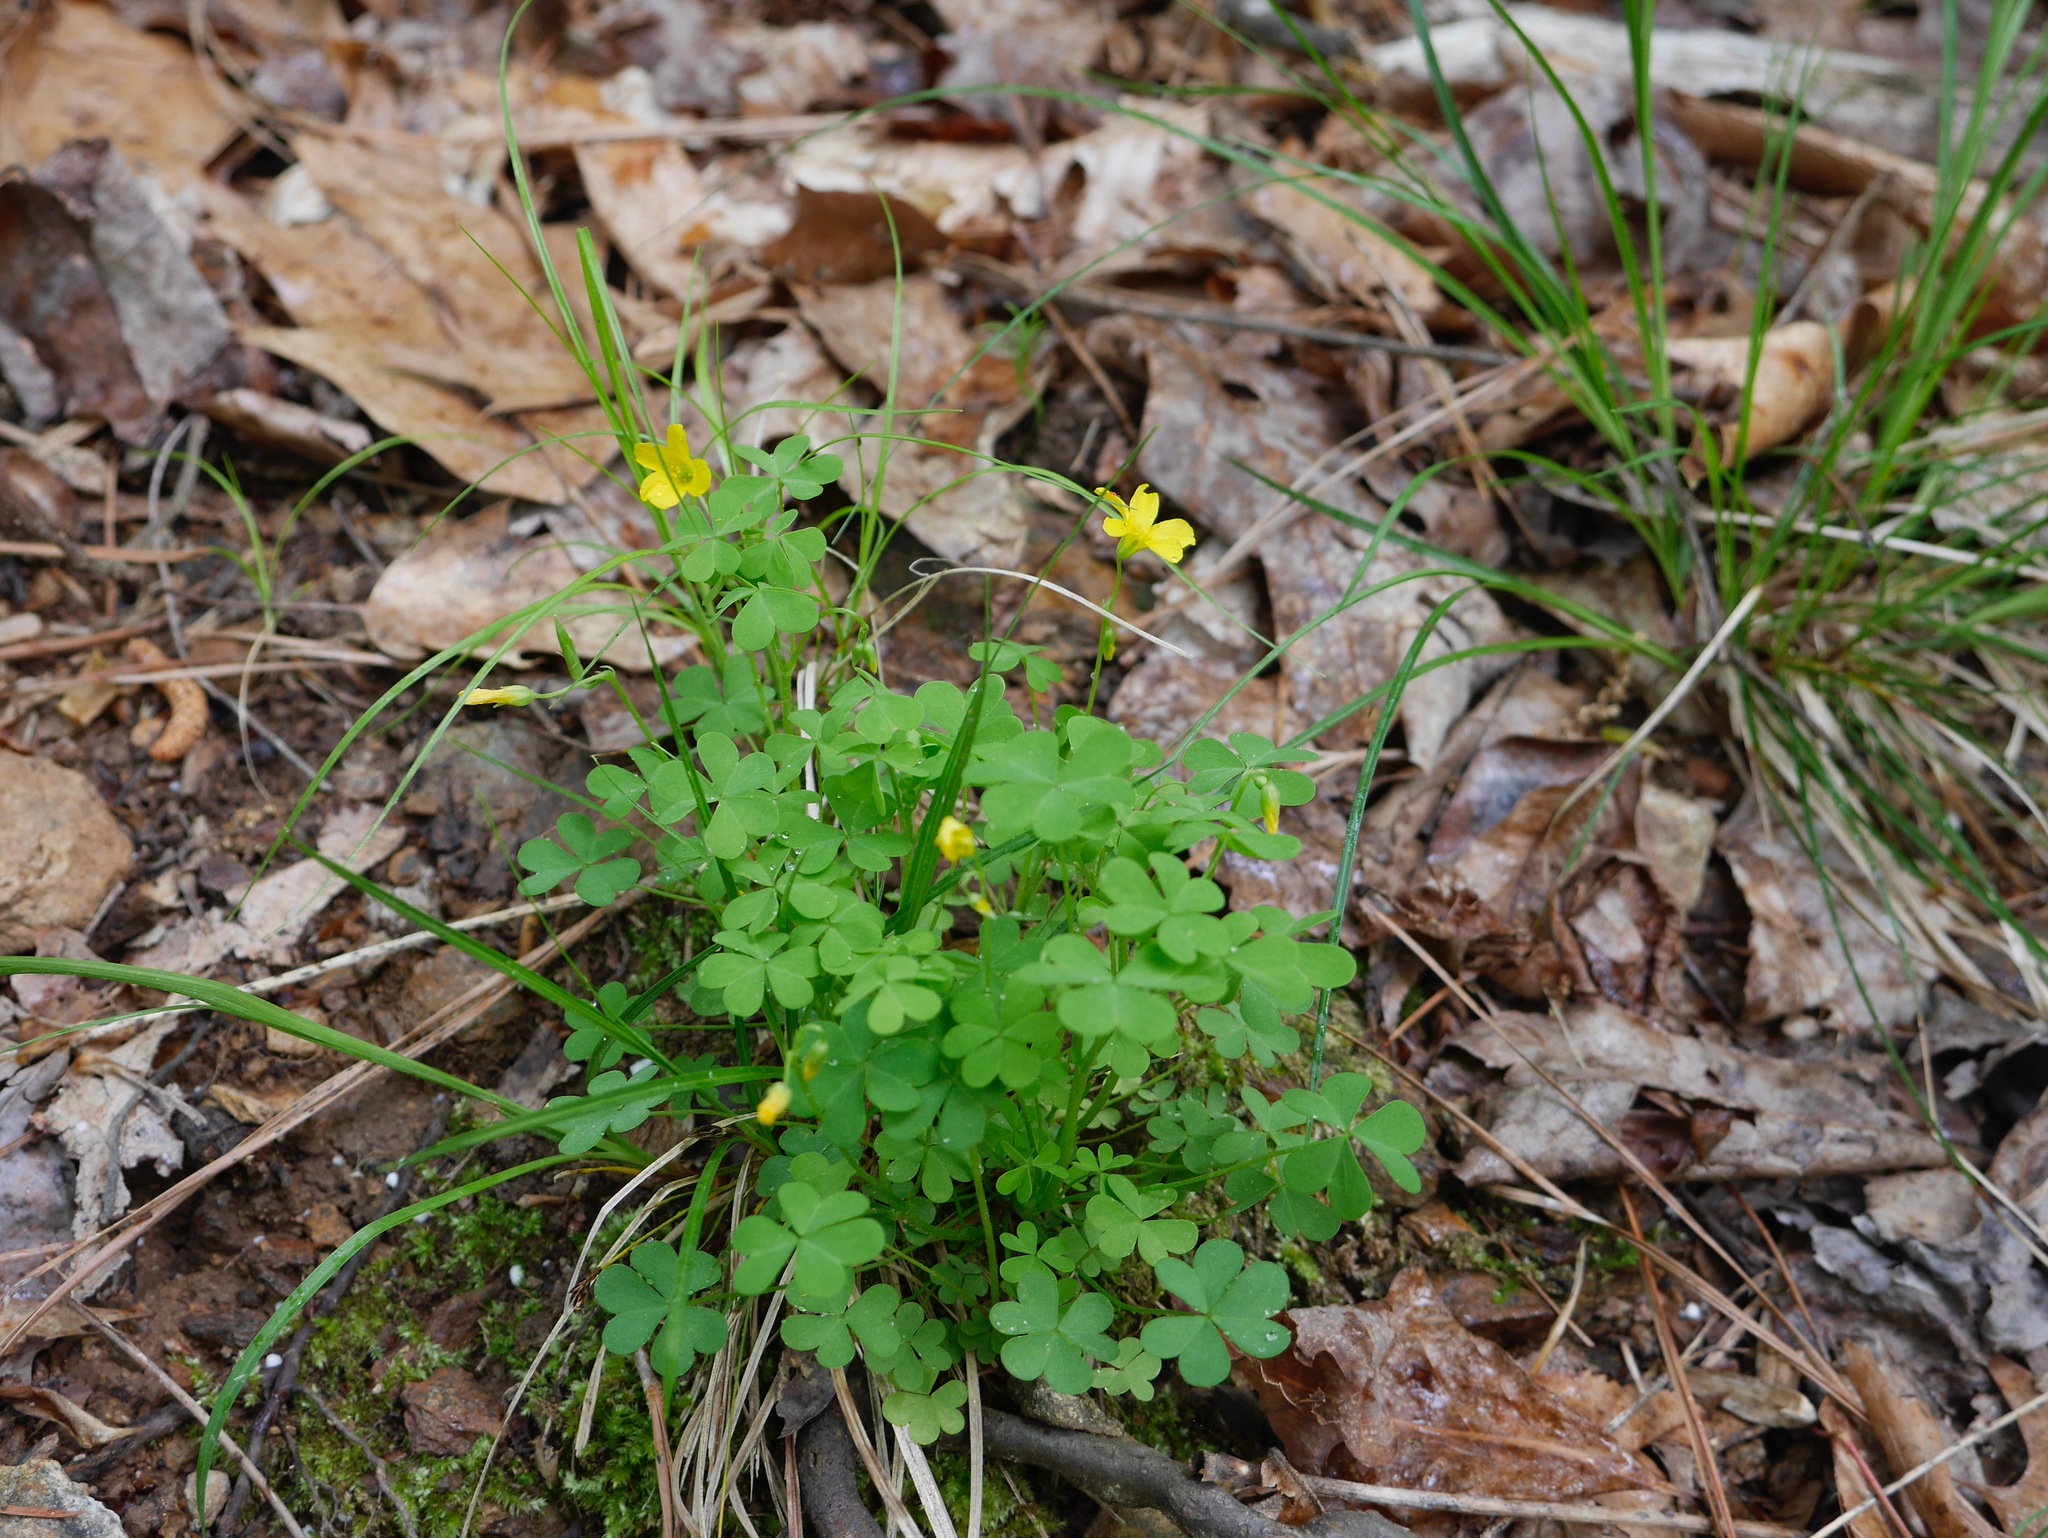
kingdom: Plantae
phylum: Tracheophyta
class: Magnoliopsida
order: Oxalidales
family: Oxalidaceae
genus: Oxalis
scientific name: Oxalis stricta
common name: Upright yellow-sorrel
